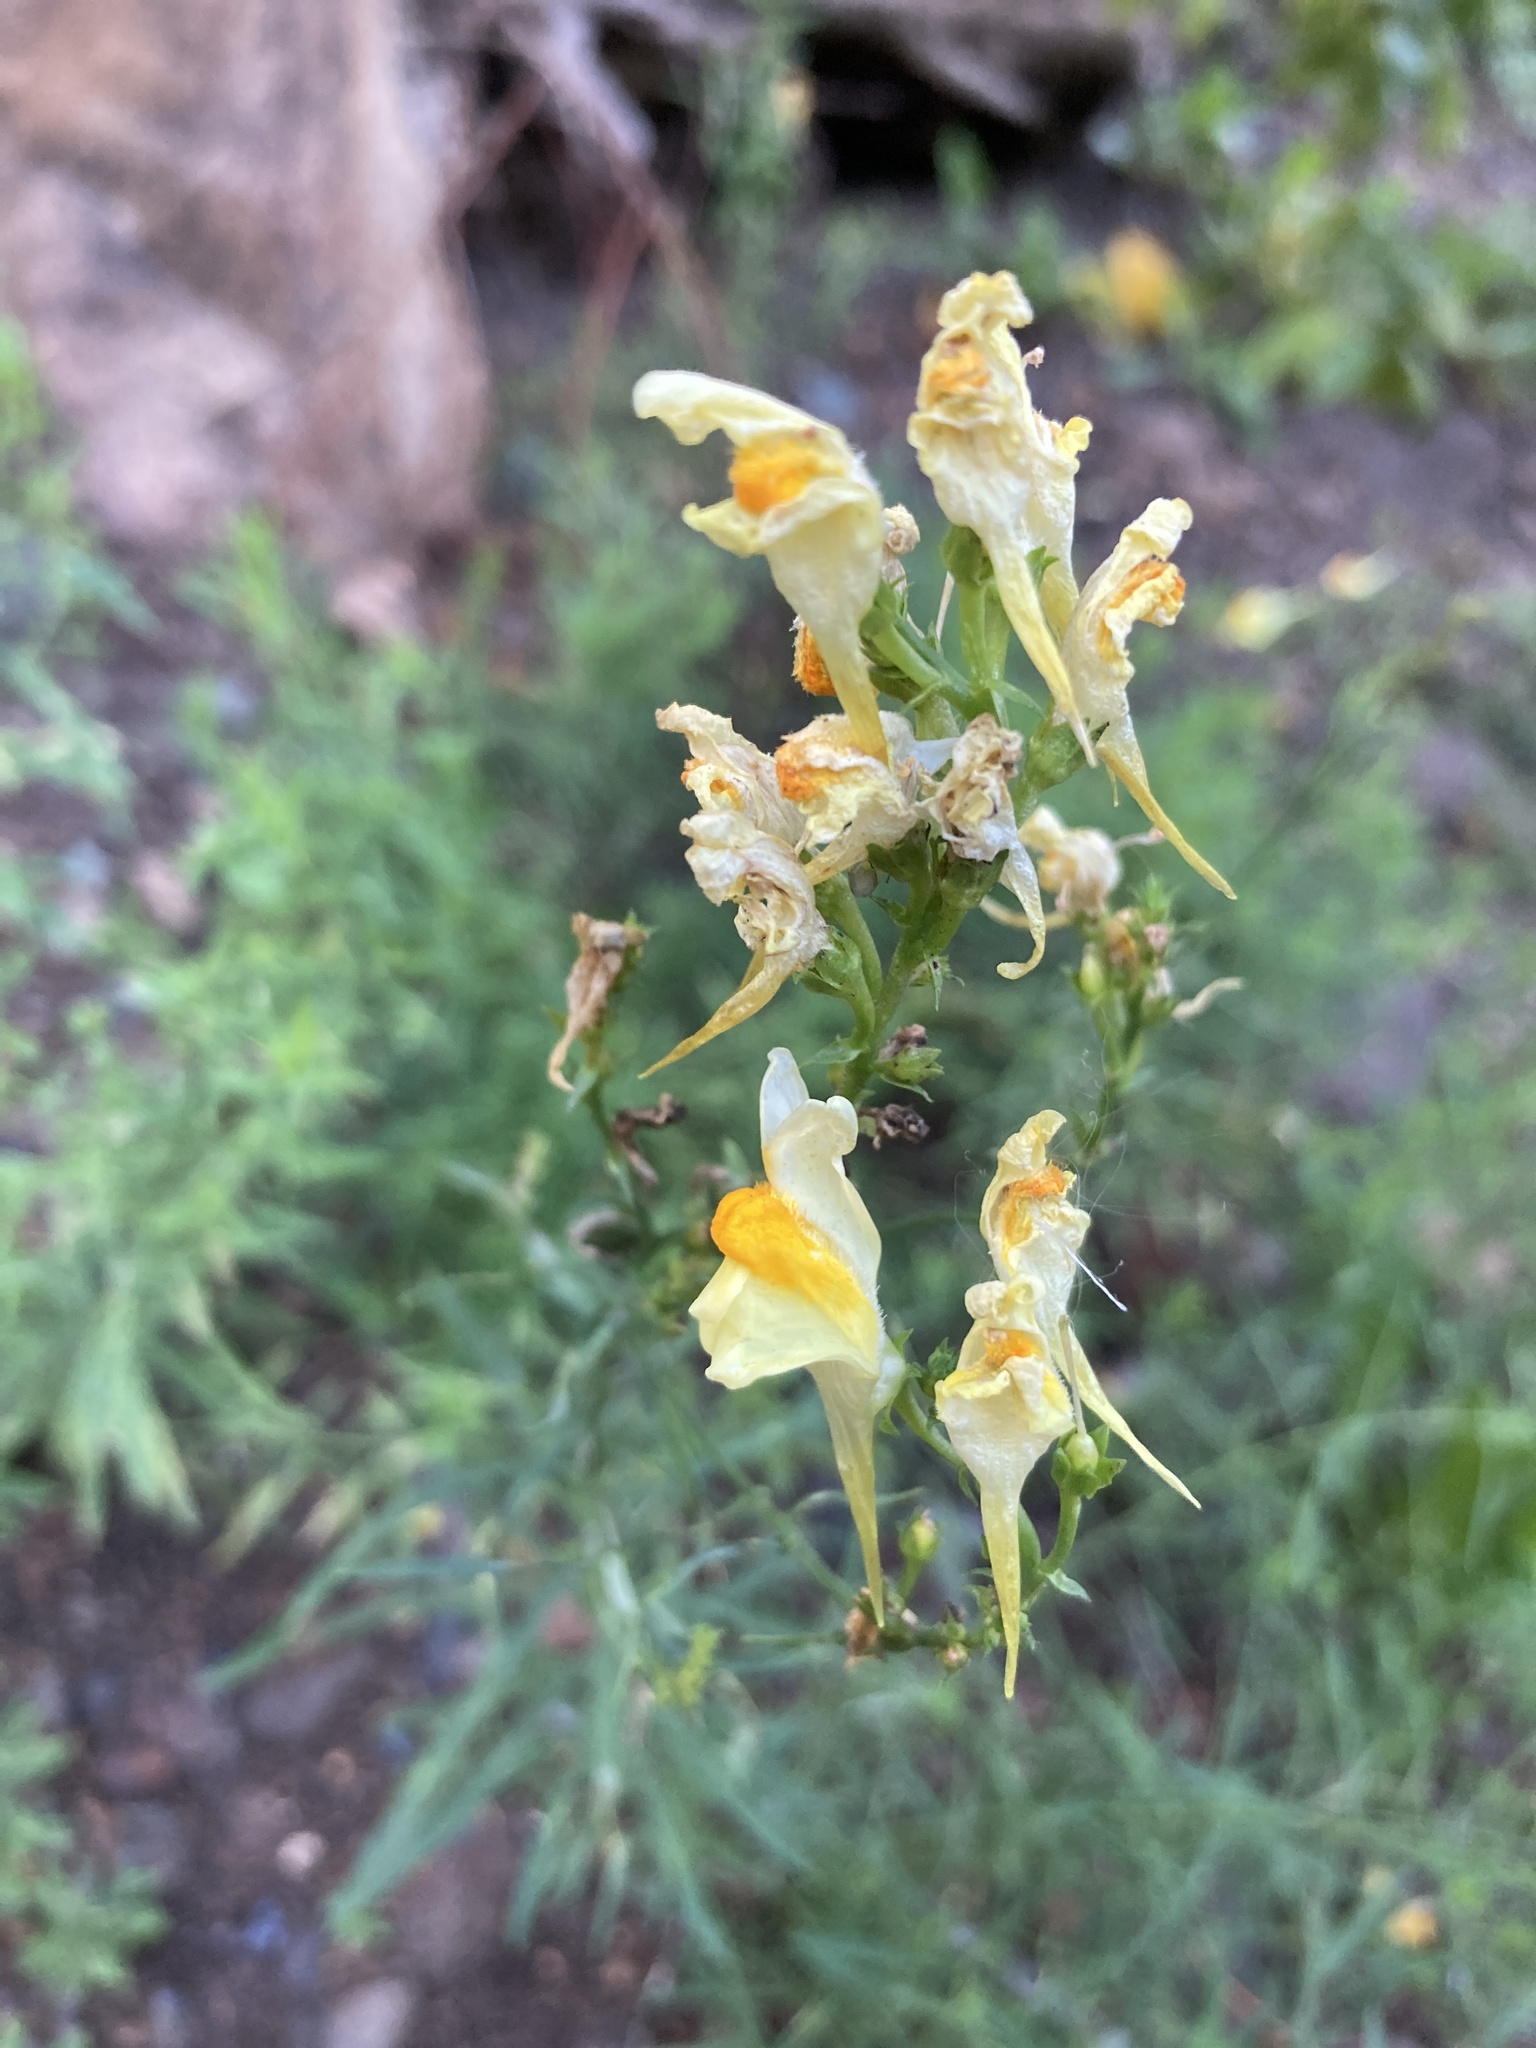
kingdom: Plantae
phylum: Tracheophyta
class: Magnoliopsida
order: Lamiales
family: Plantaginaceae
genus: Linaria
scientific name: Linaria vulgaris
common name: Butter and eggs
